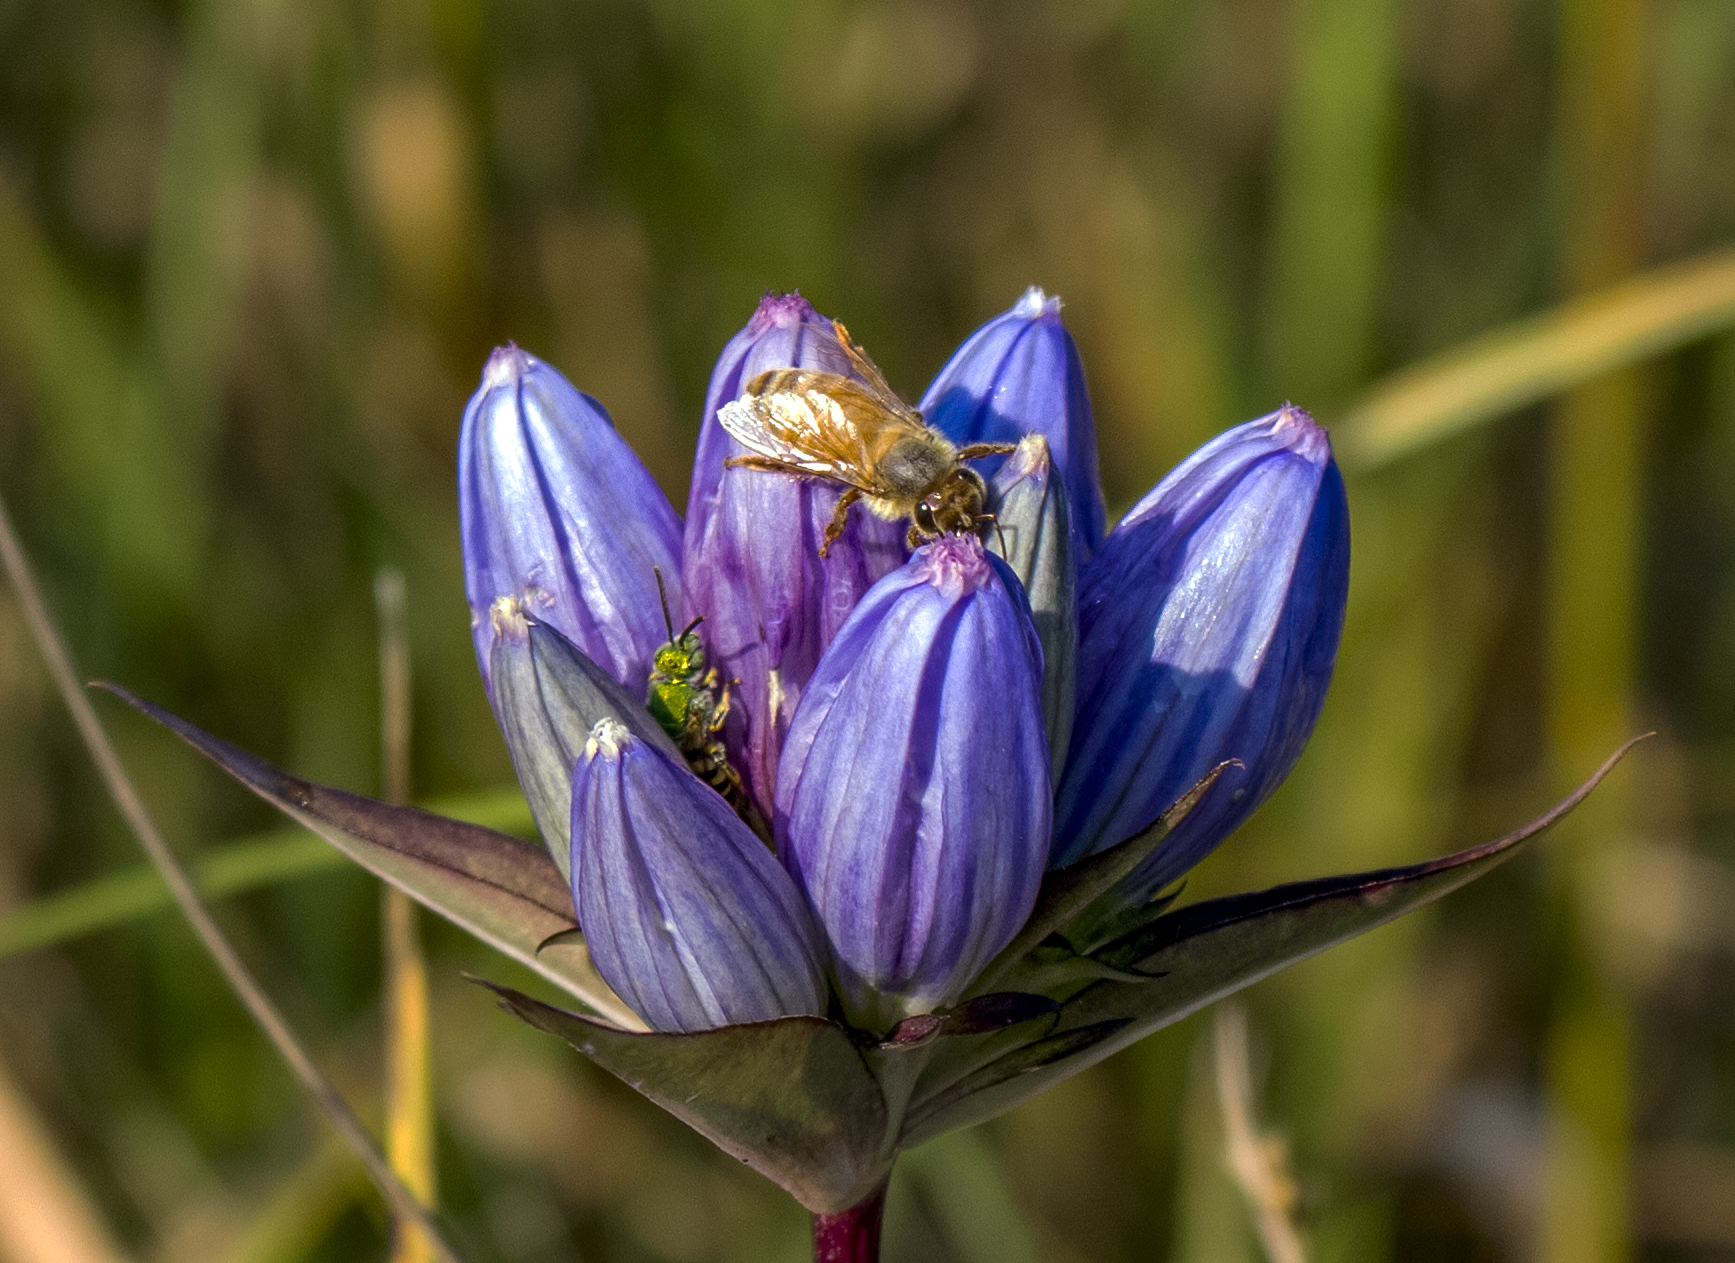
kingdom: Plantae
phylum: Tracheophyta
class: Magnoliopsida
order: Gentianales
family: Gentianaceae
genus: Gentiana
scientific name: Gentiana andrewsii
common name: Bottle gentian
